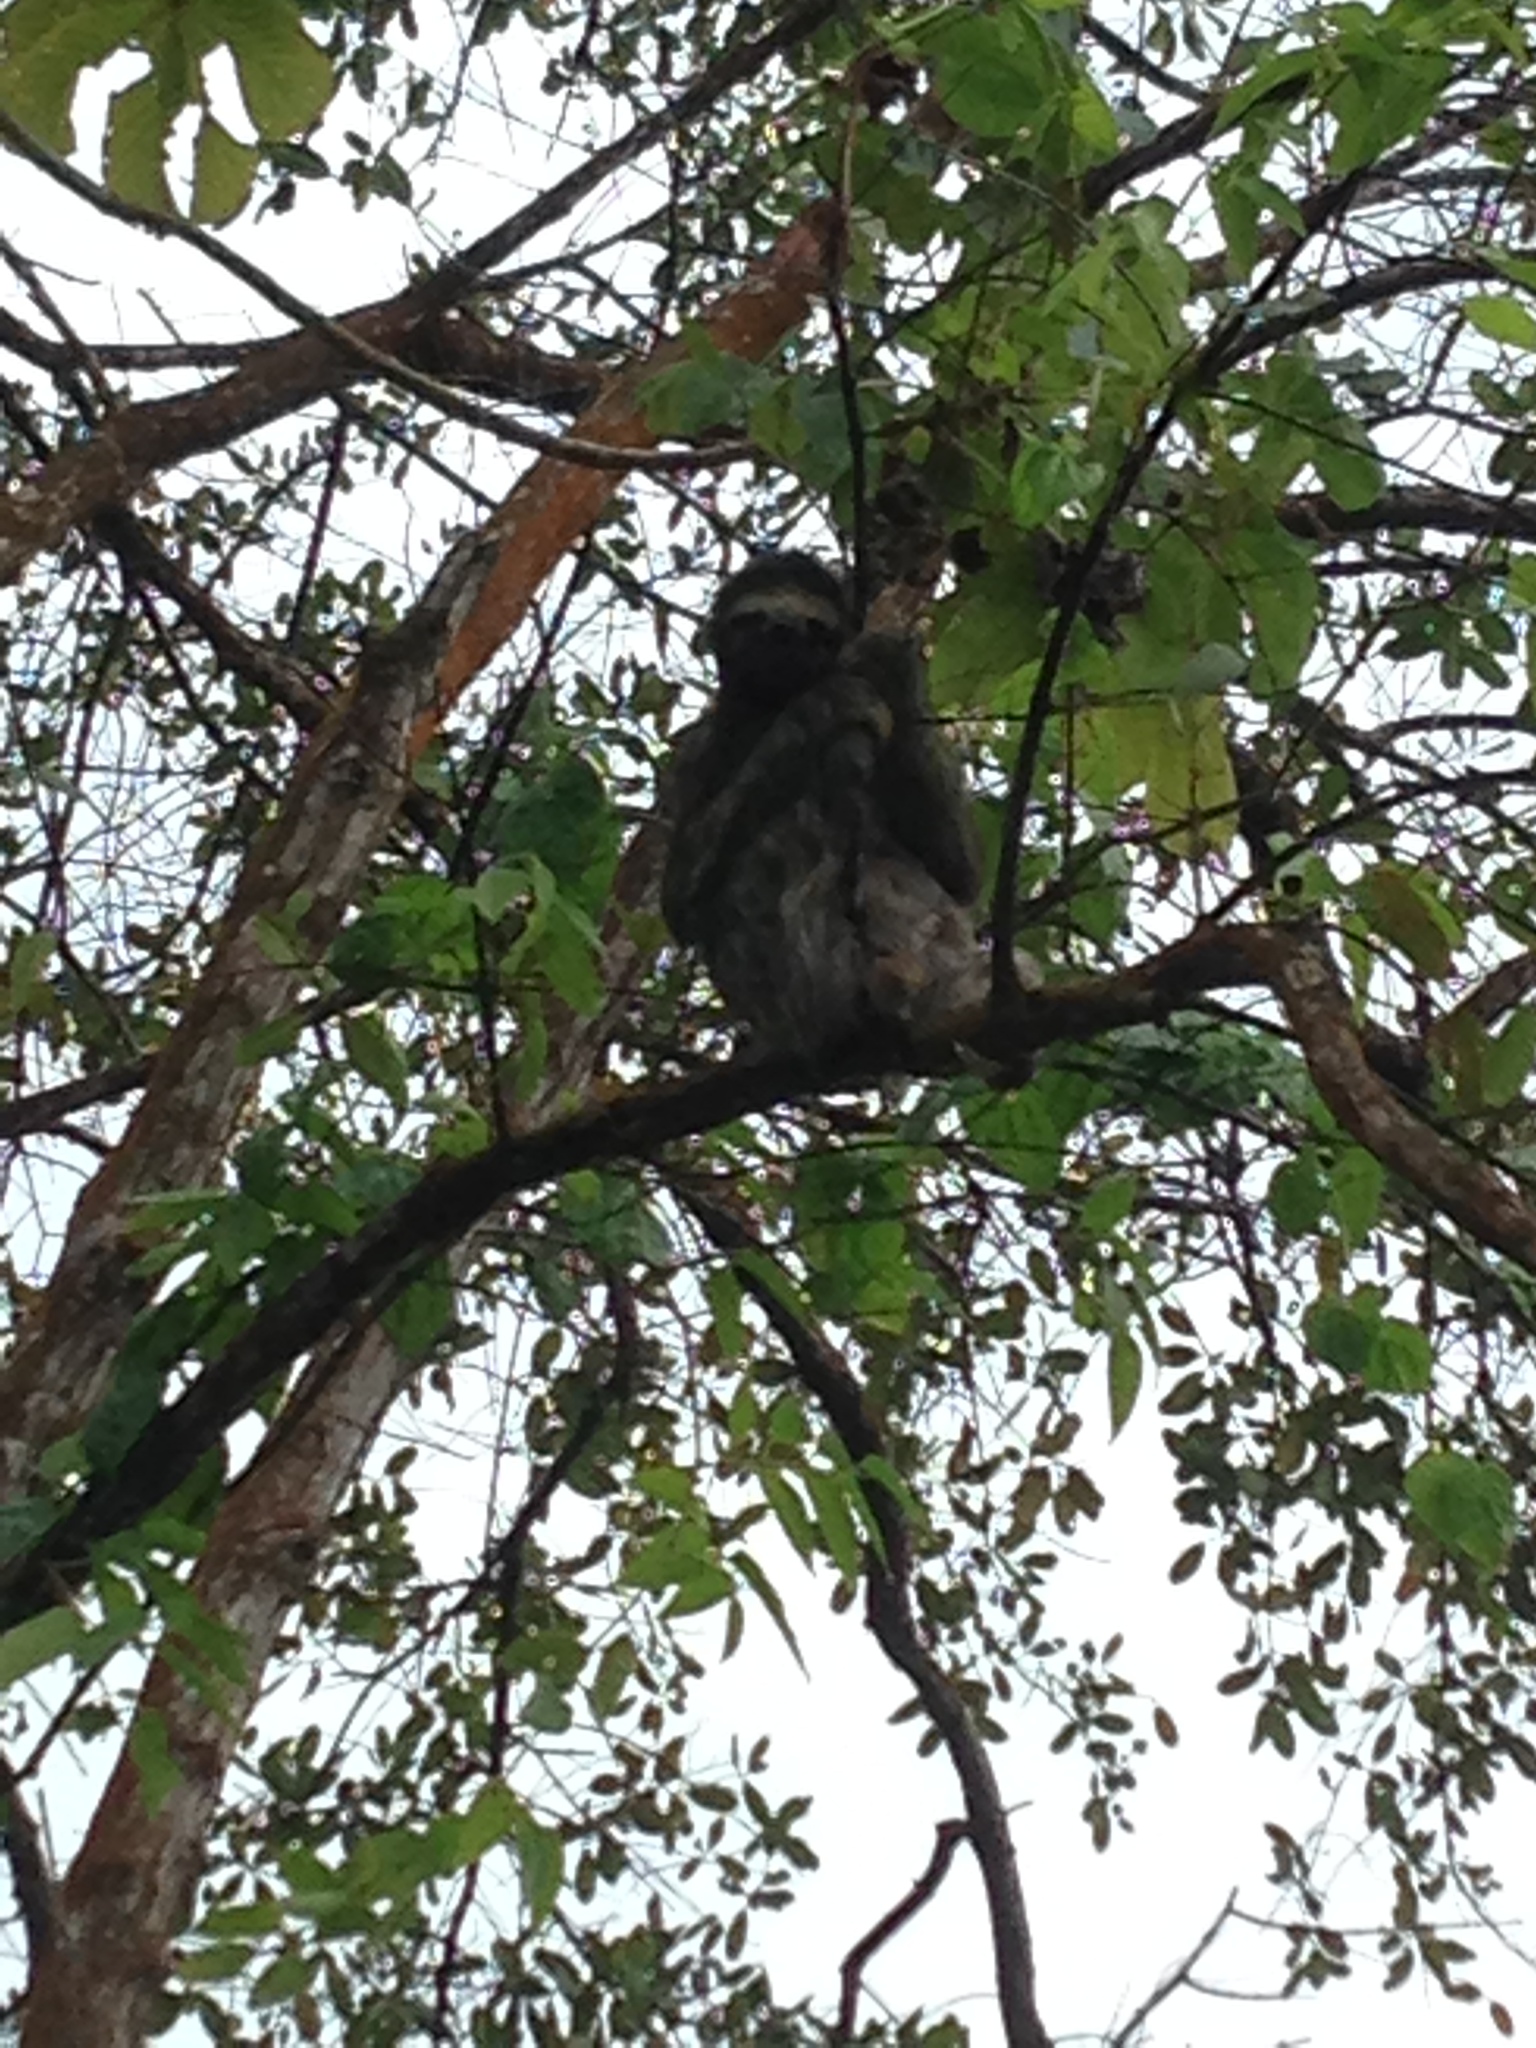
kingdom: Animalia
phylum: Chordata
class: Mammalia
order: Pilosa
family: Bradypodidae
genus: Bradypus
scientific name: Bradypus variegatus
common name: Brown-throated three-toed sloth
